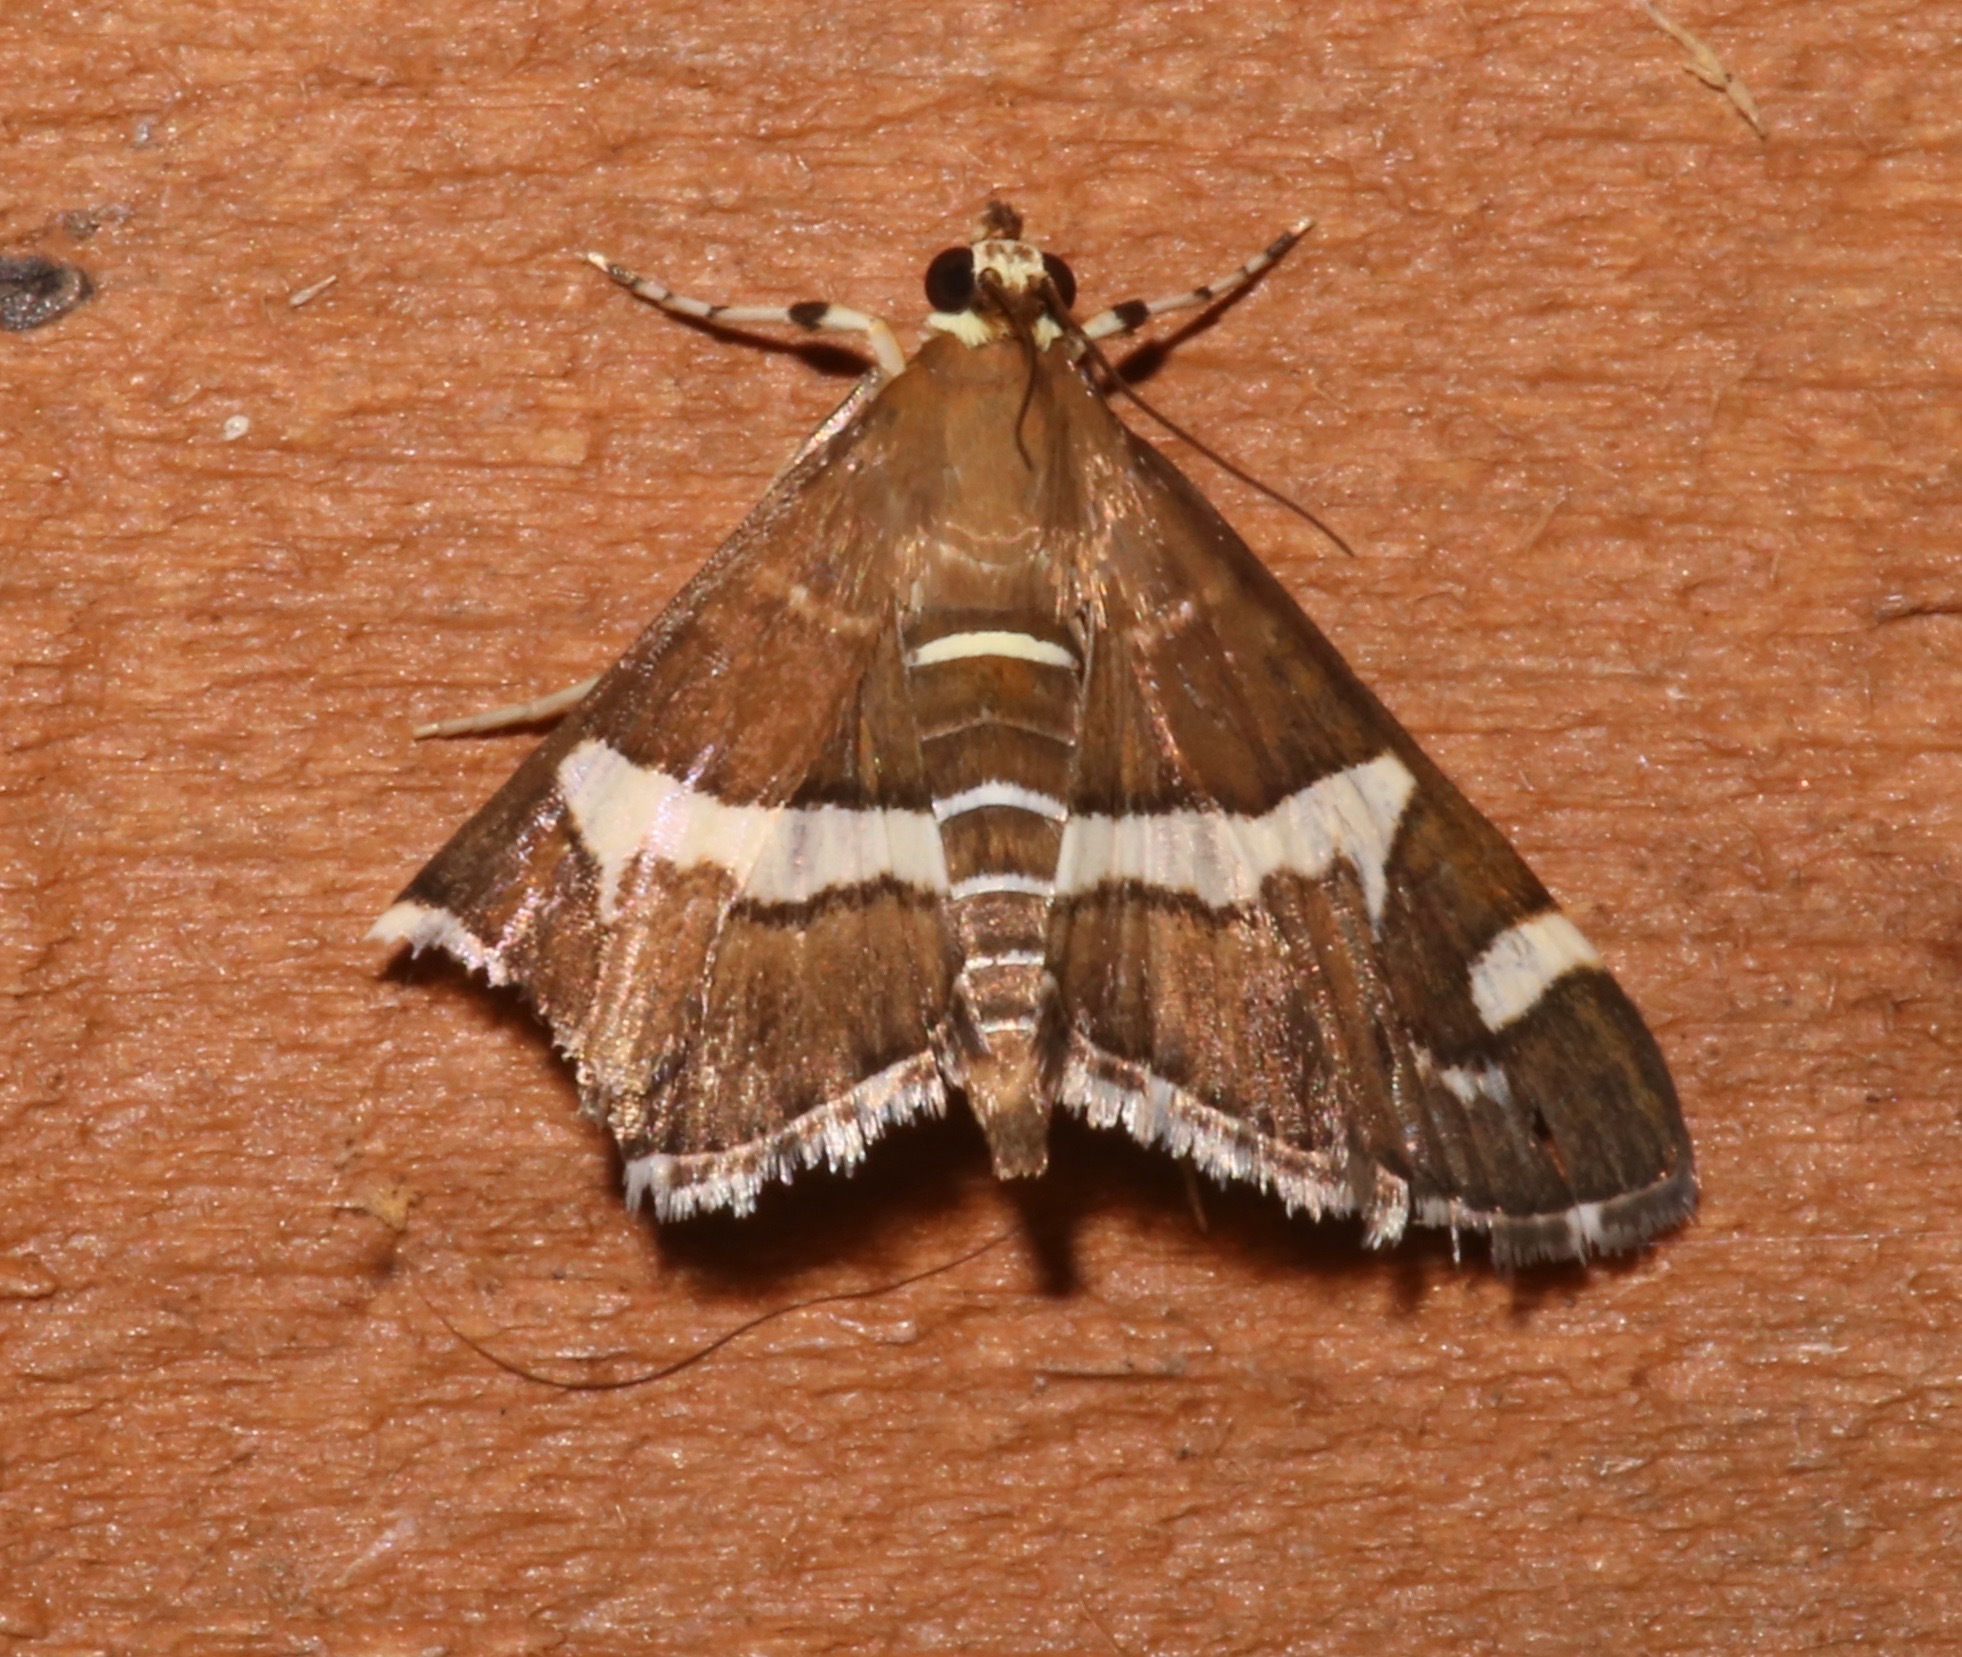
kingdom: Animalia
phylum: Arthropoda
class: Insecta
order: Lepidoptera
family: Crambidae
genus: Spoladea
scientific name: Spoladea recurvalis
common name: Beet webworm moth
